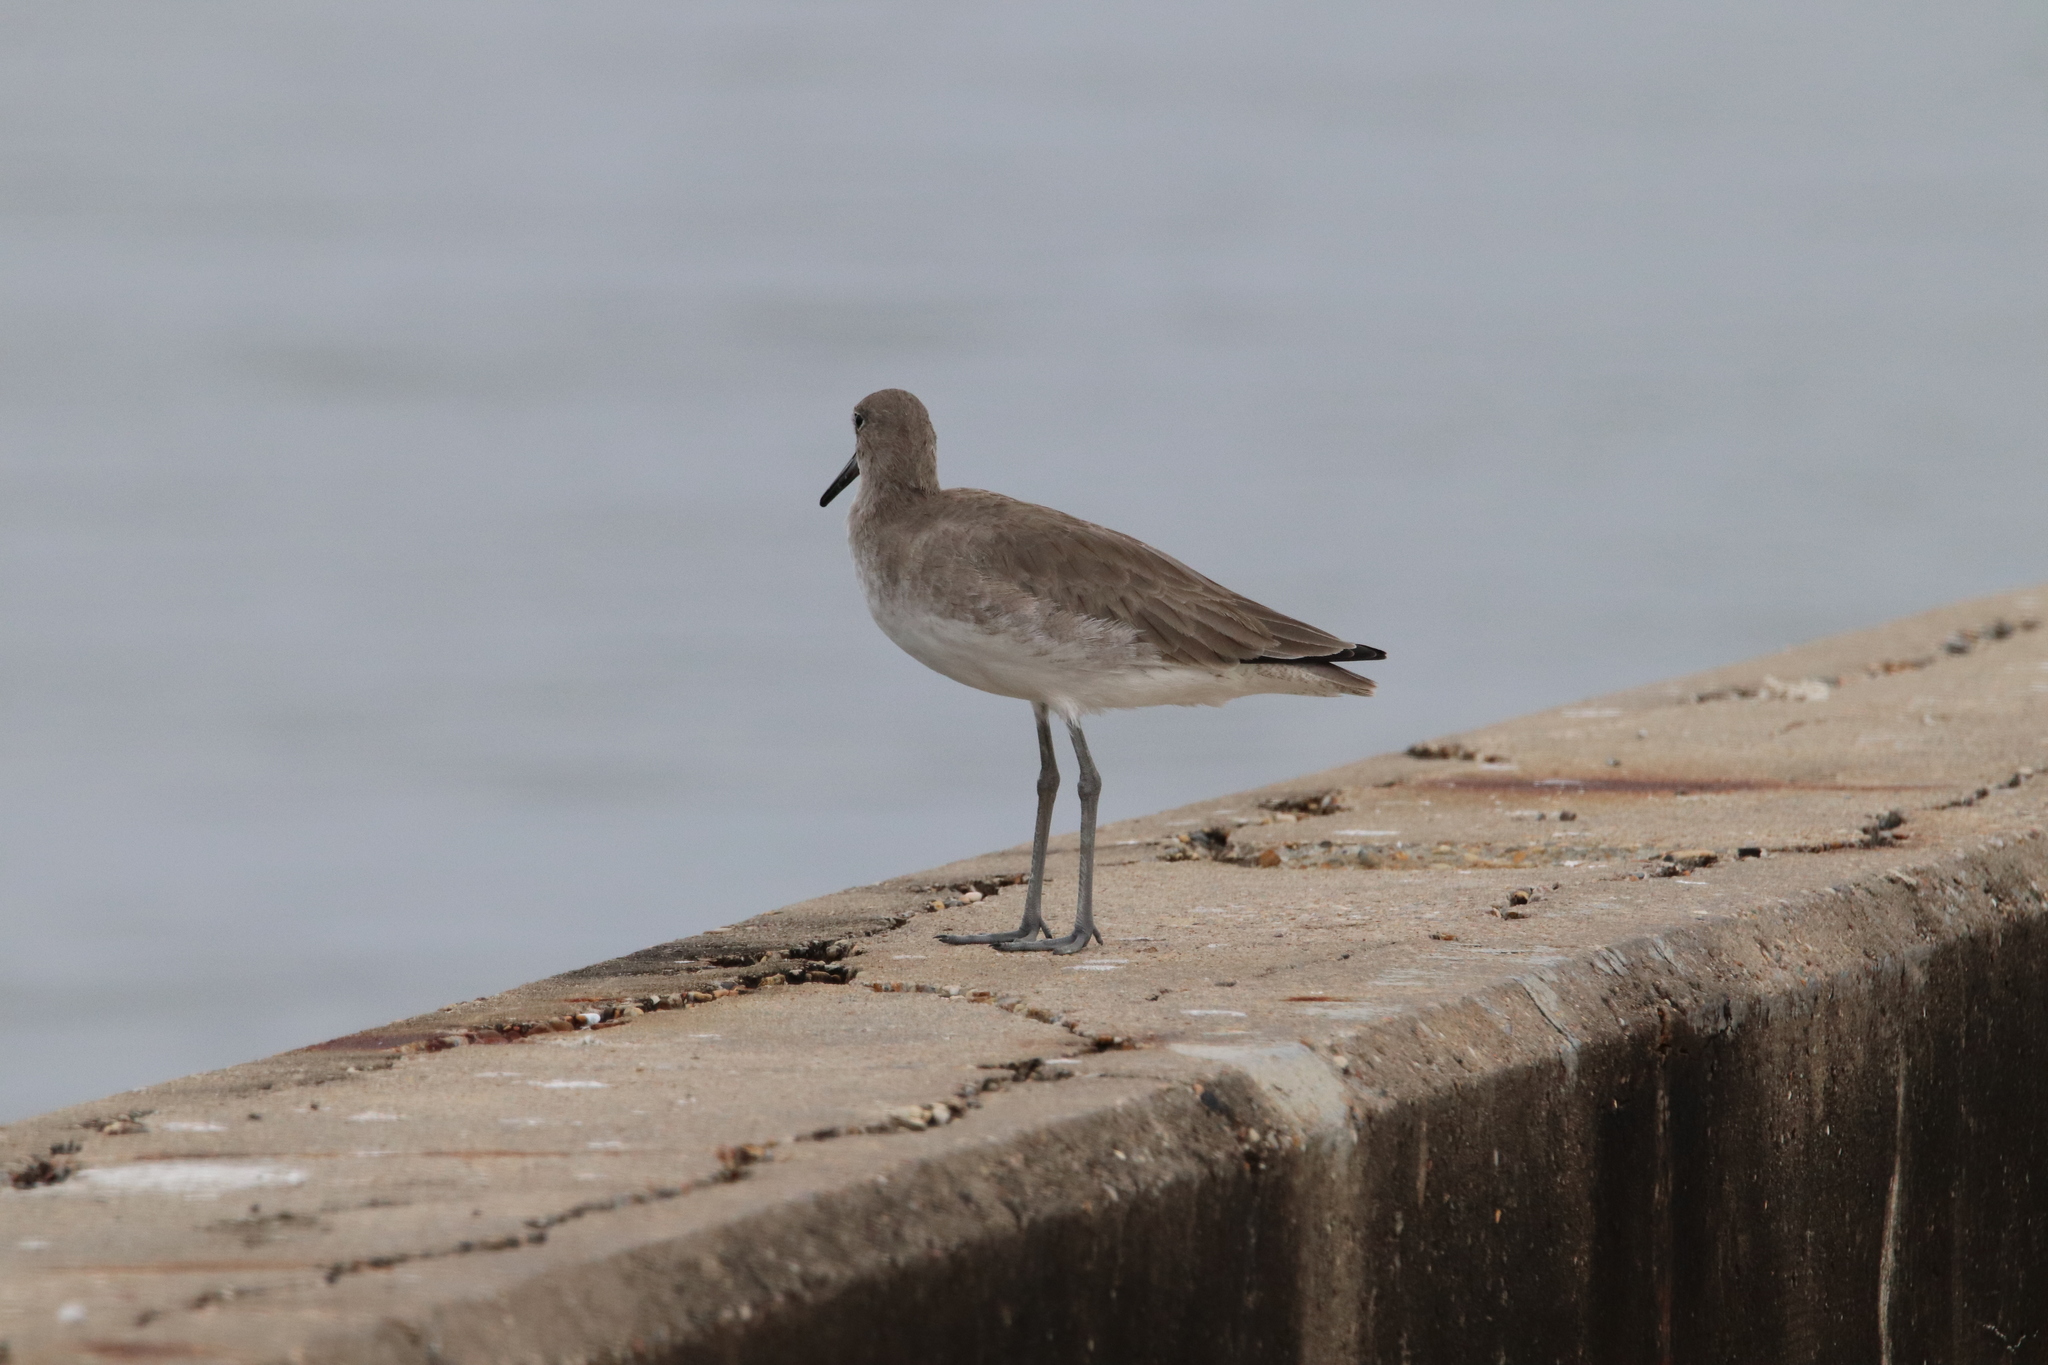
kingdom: Animalia
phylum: Chordata
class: Aves
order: Charadriiformes
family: Scolopacidae
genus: Tringa
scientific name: Tringa semipalmata
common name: Willet
